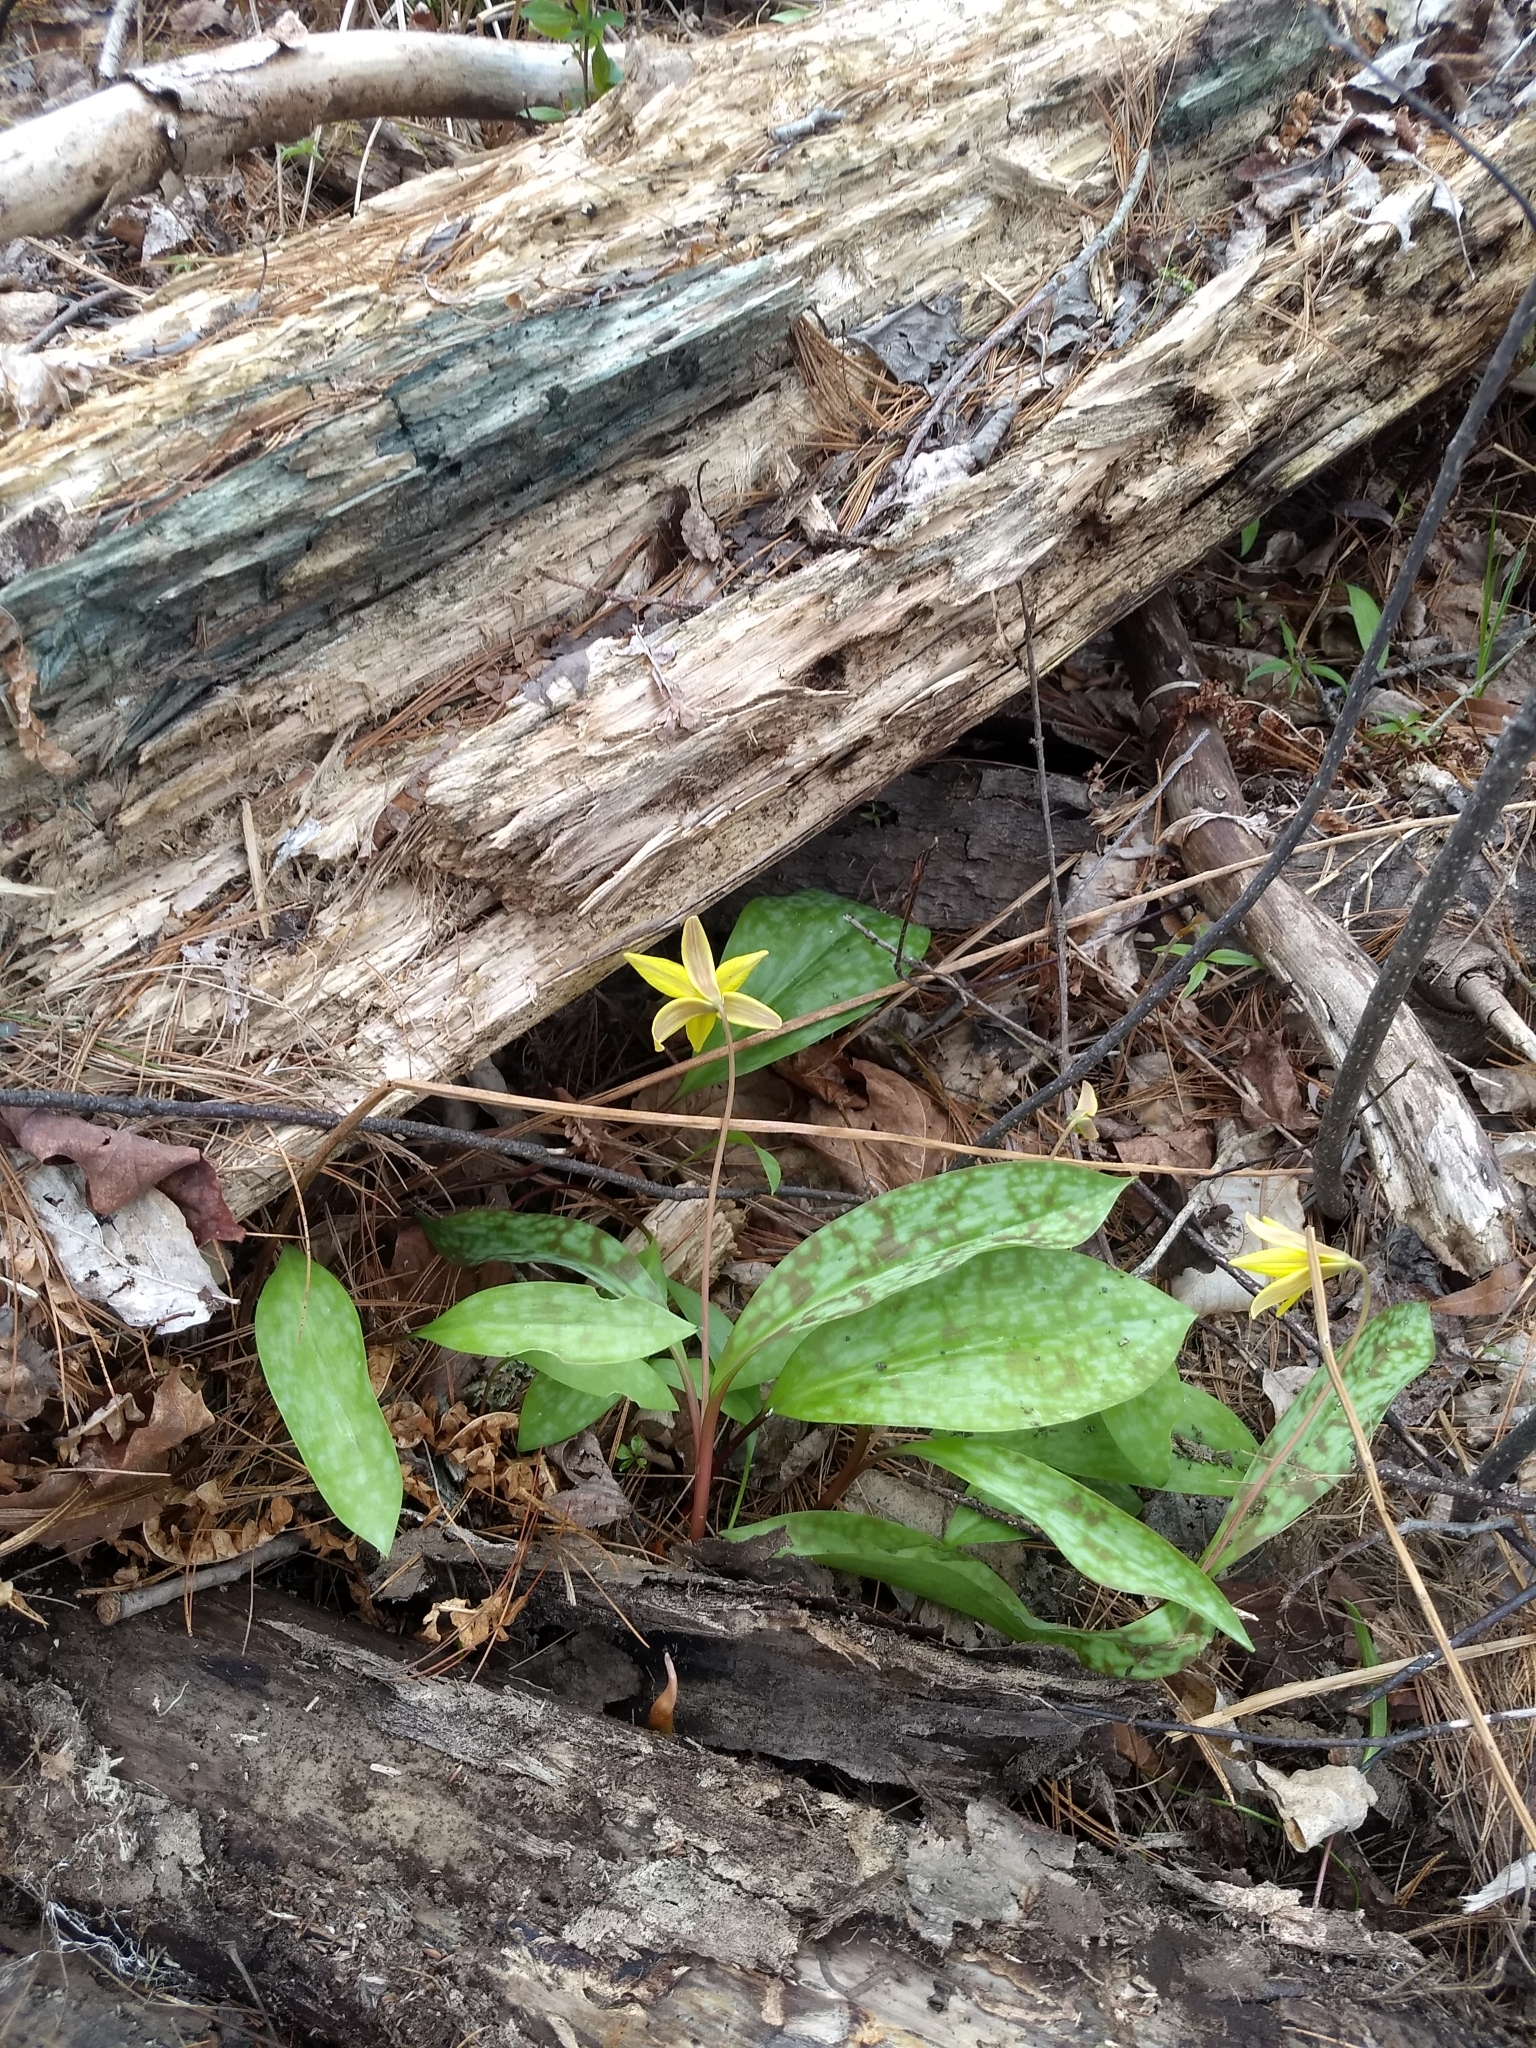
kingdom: Plantae
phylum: Tracheophyta
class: Liliopsida
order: Liliales
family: Liliaceae
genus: Erythronium
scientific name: Erythronium americanum
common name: Yellow adder's-tongue
